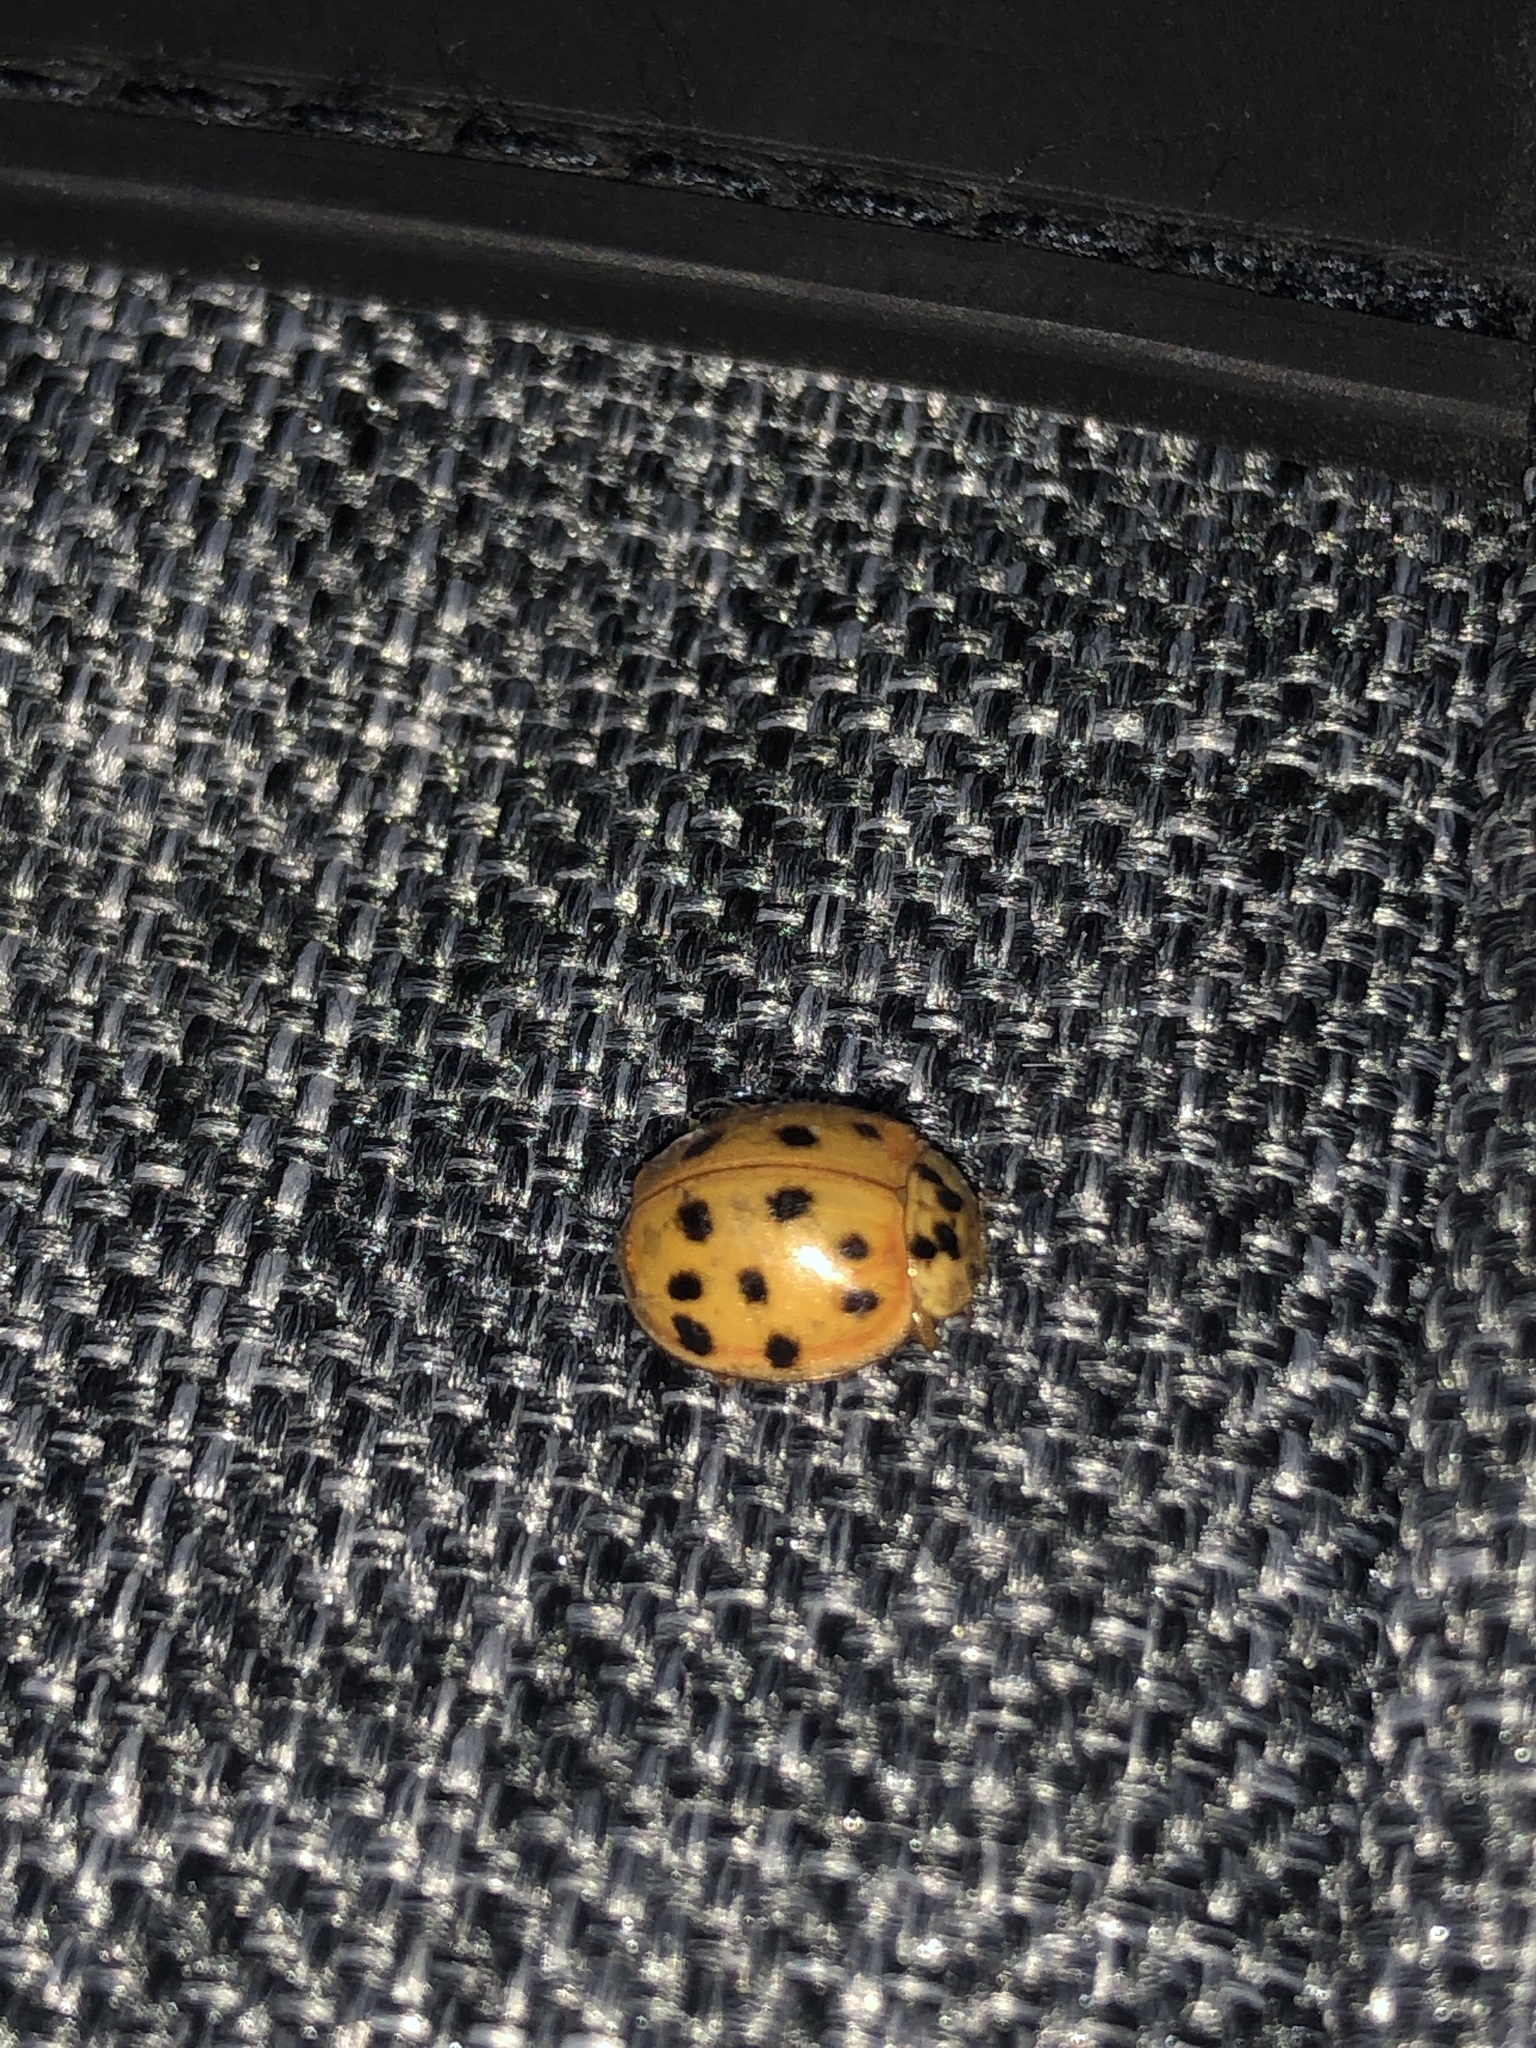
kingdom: Animalia
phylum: Arthropoda
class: Insecta
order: Coleoptera
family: Coccinellidae
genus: Harmonia
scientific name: Harmonia axyridis
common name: Harlequin ladybird
